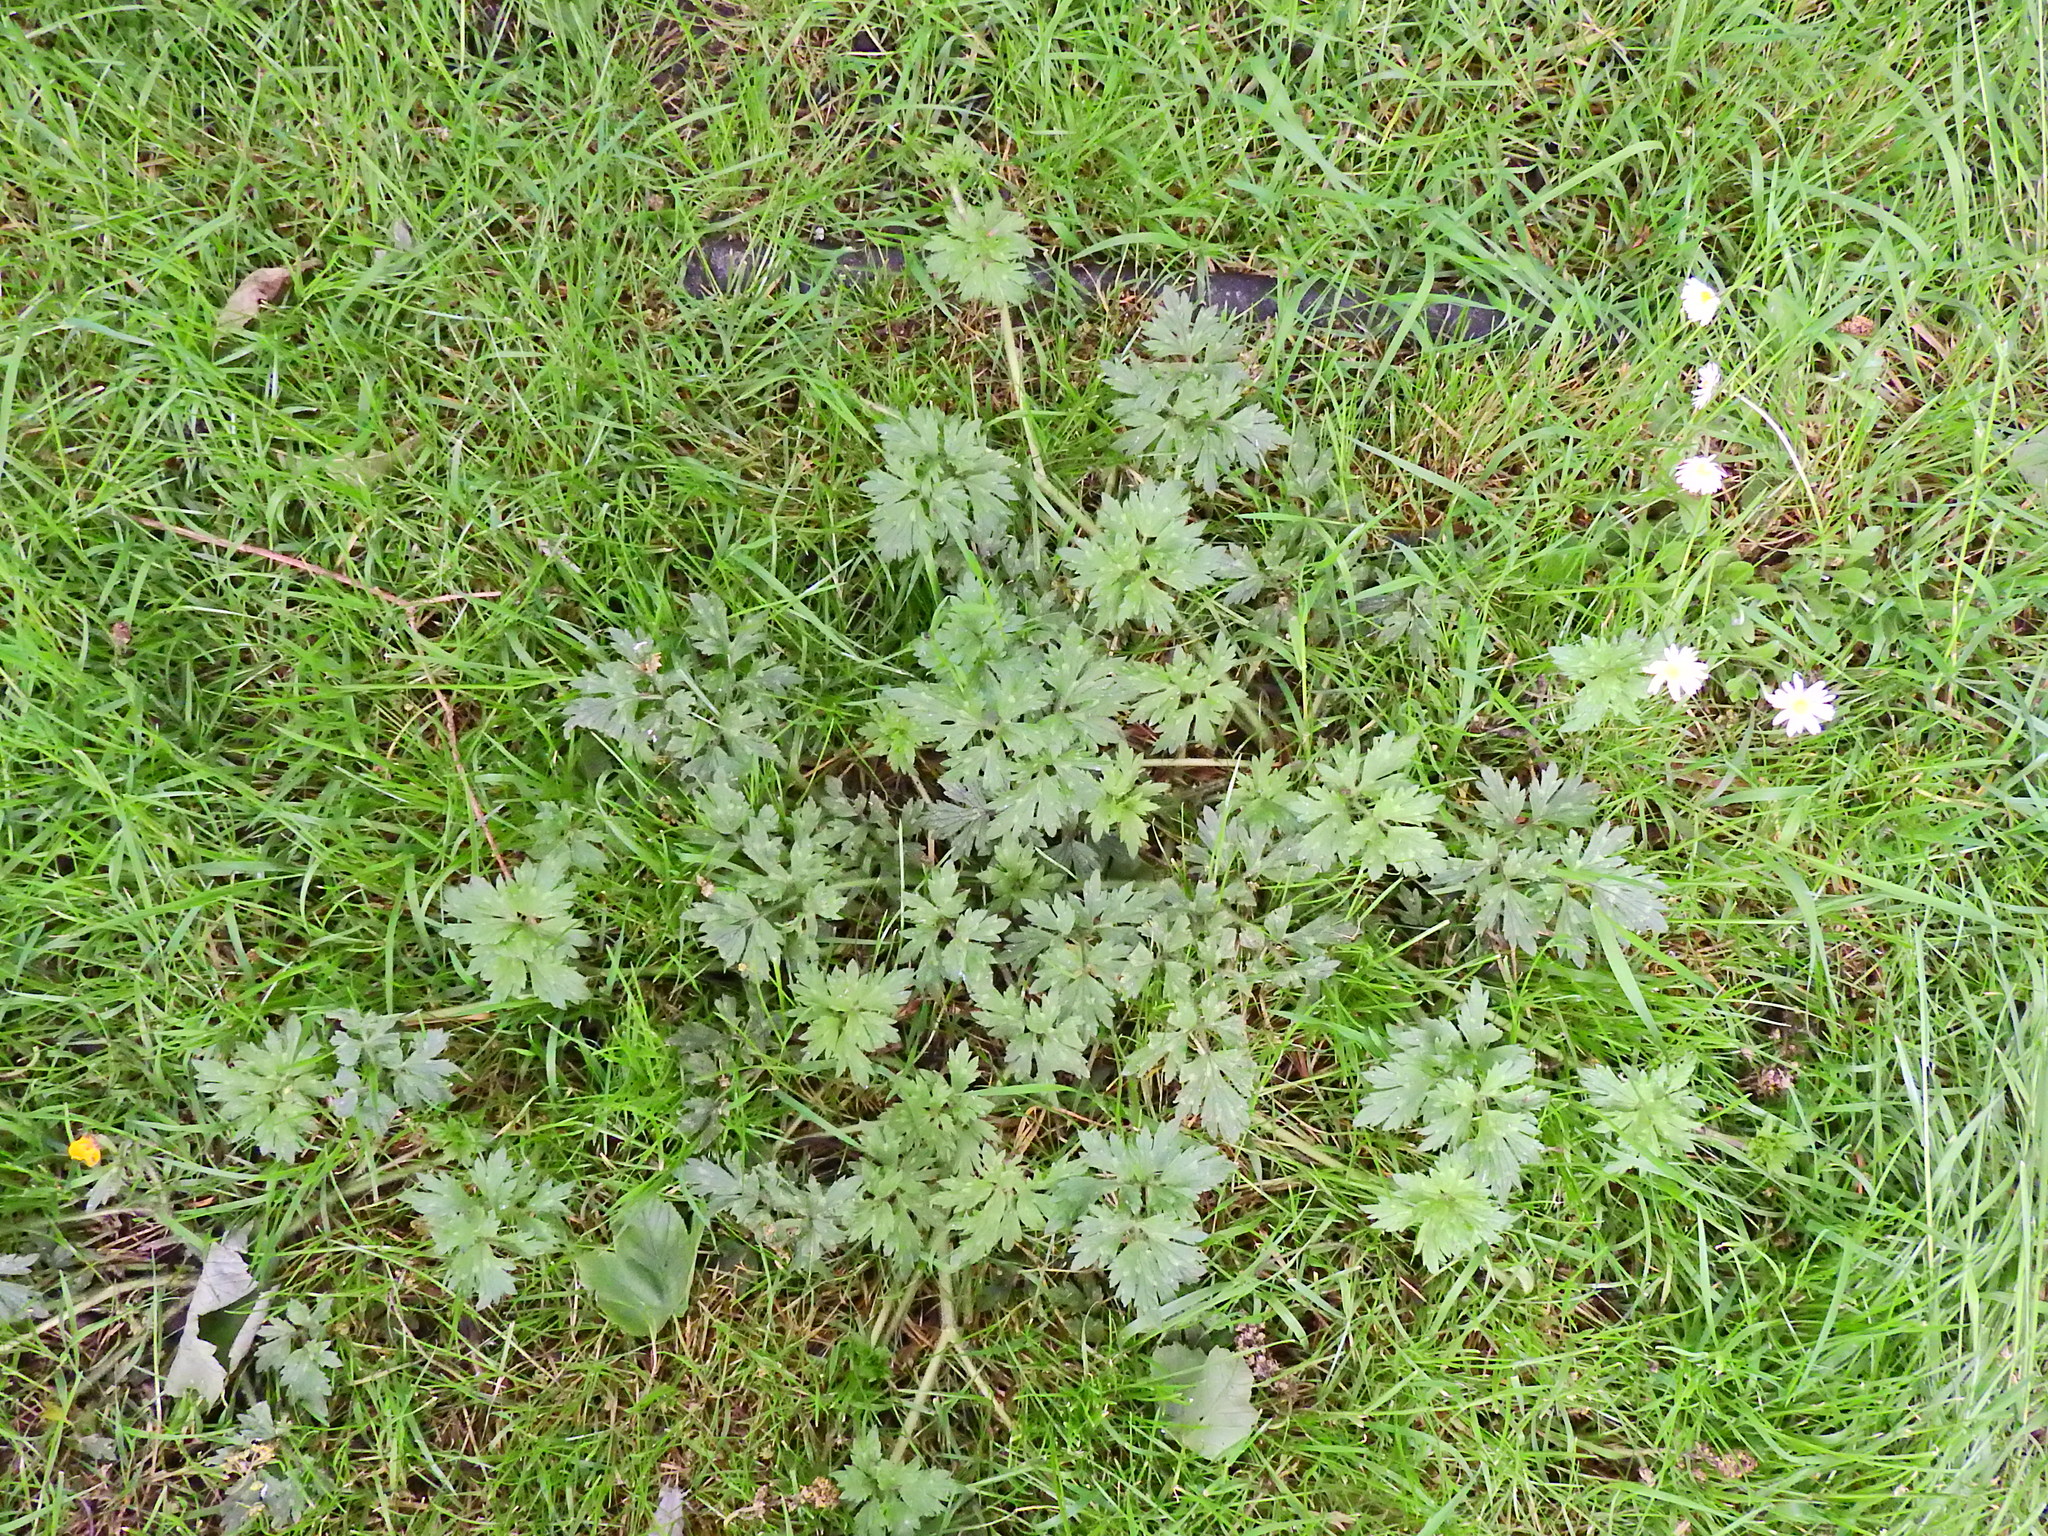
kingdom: Plantae
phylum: Tracheophyta
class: Magnoliopsida
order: Ranunculales
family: Ranunculaceae
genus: Ranunculus
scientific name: Ranunculus repens
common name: Creeping buttercup
